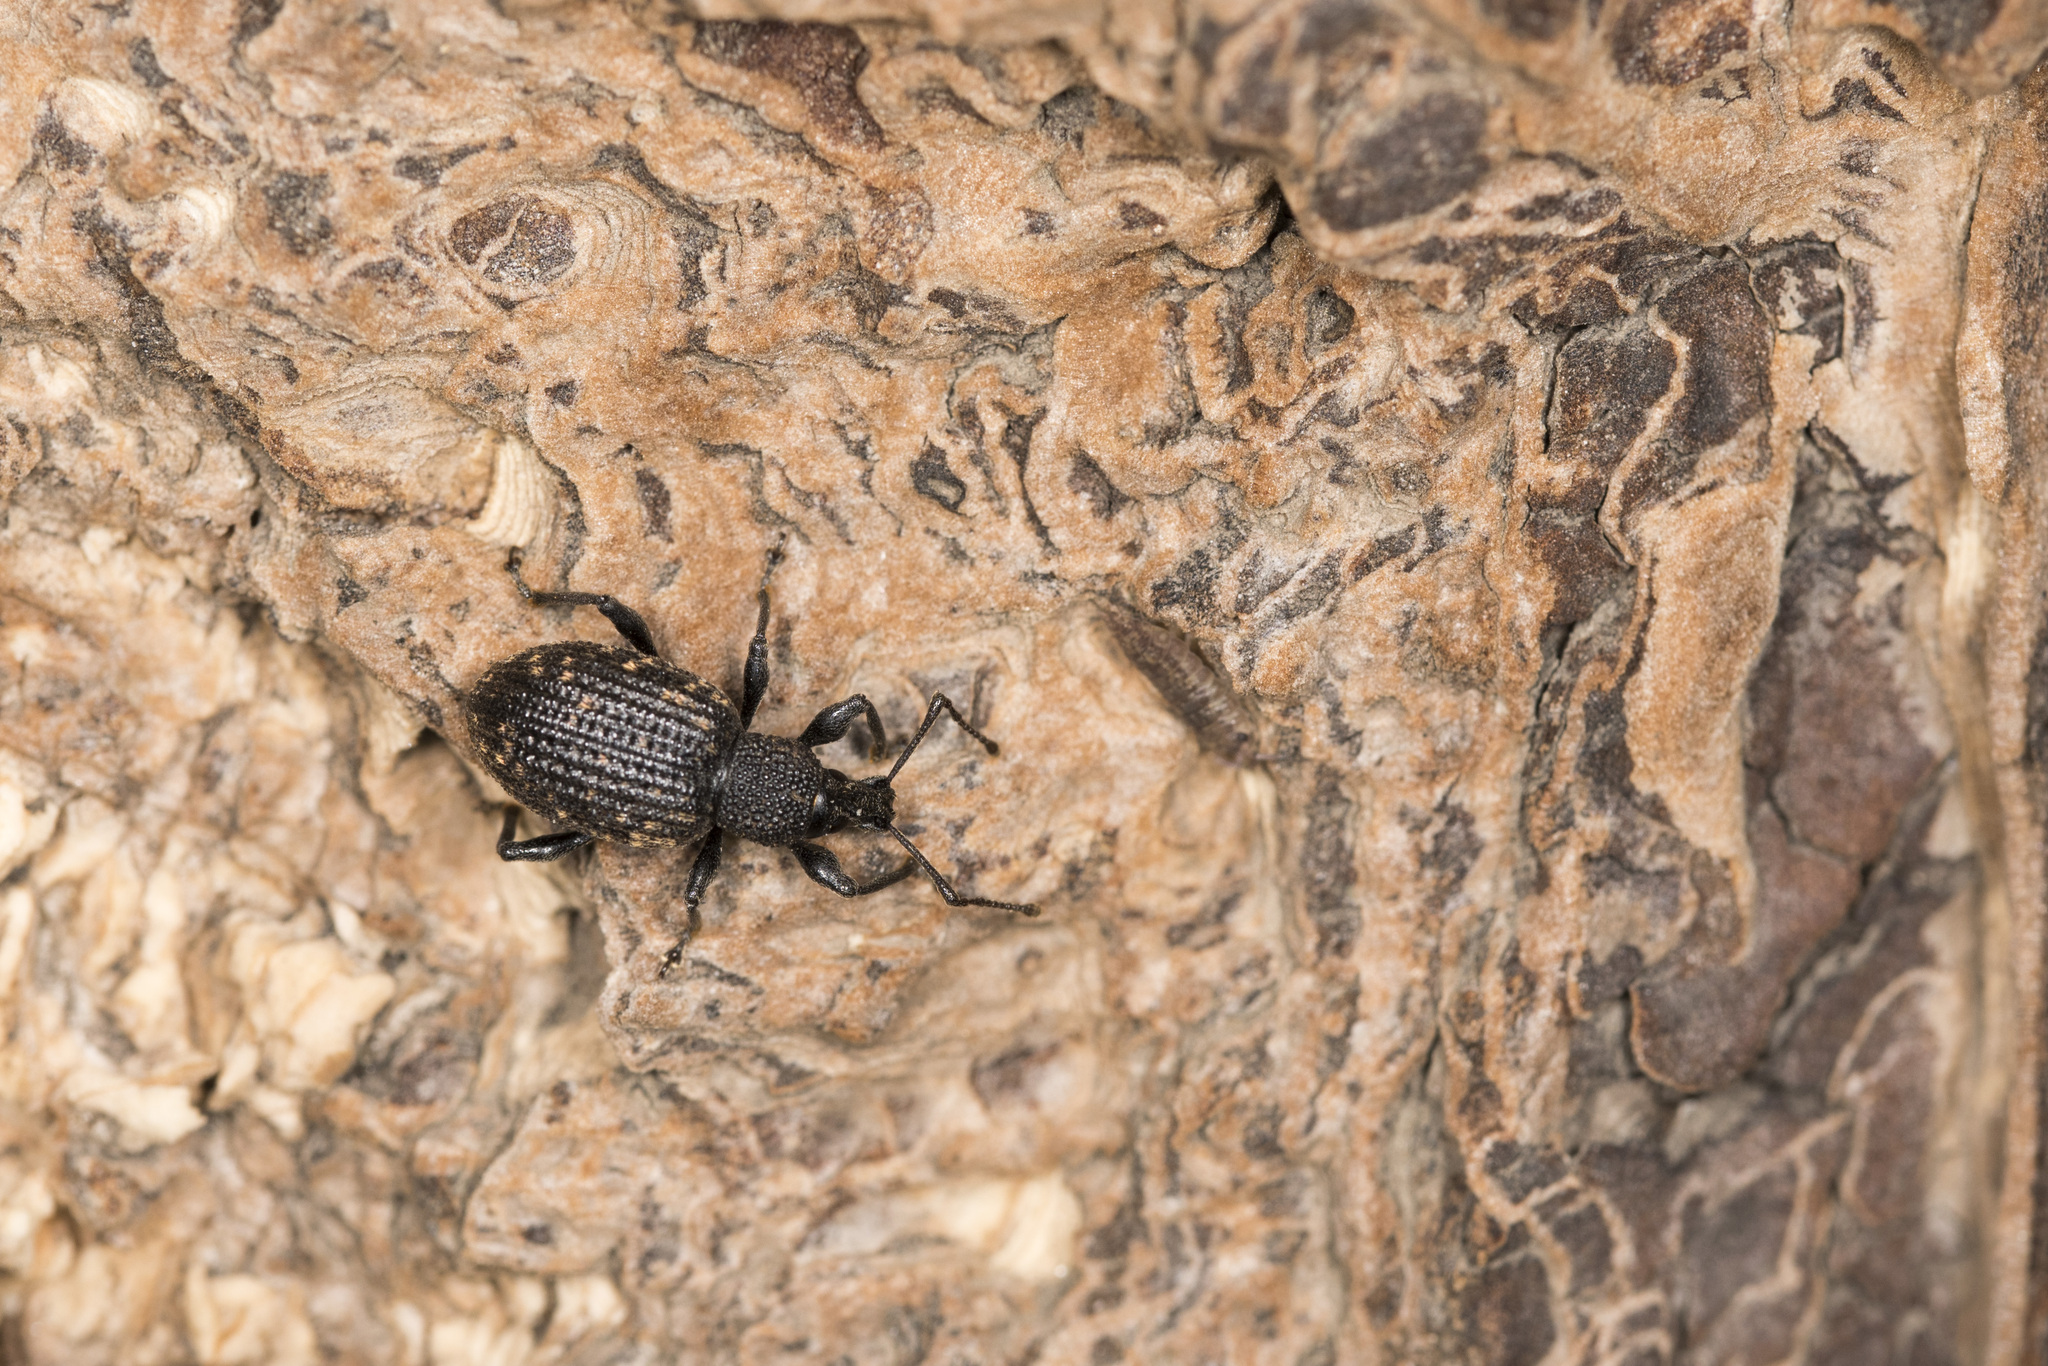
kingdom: Animalia
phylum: Arthropoda
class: Insecta
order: Coleoptera
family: Curculionidae
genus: Otiorhynchus
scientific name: Otiorhynchus sulcatus
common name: Black vine weevil
